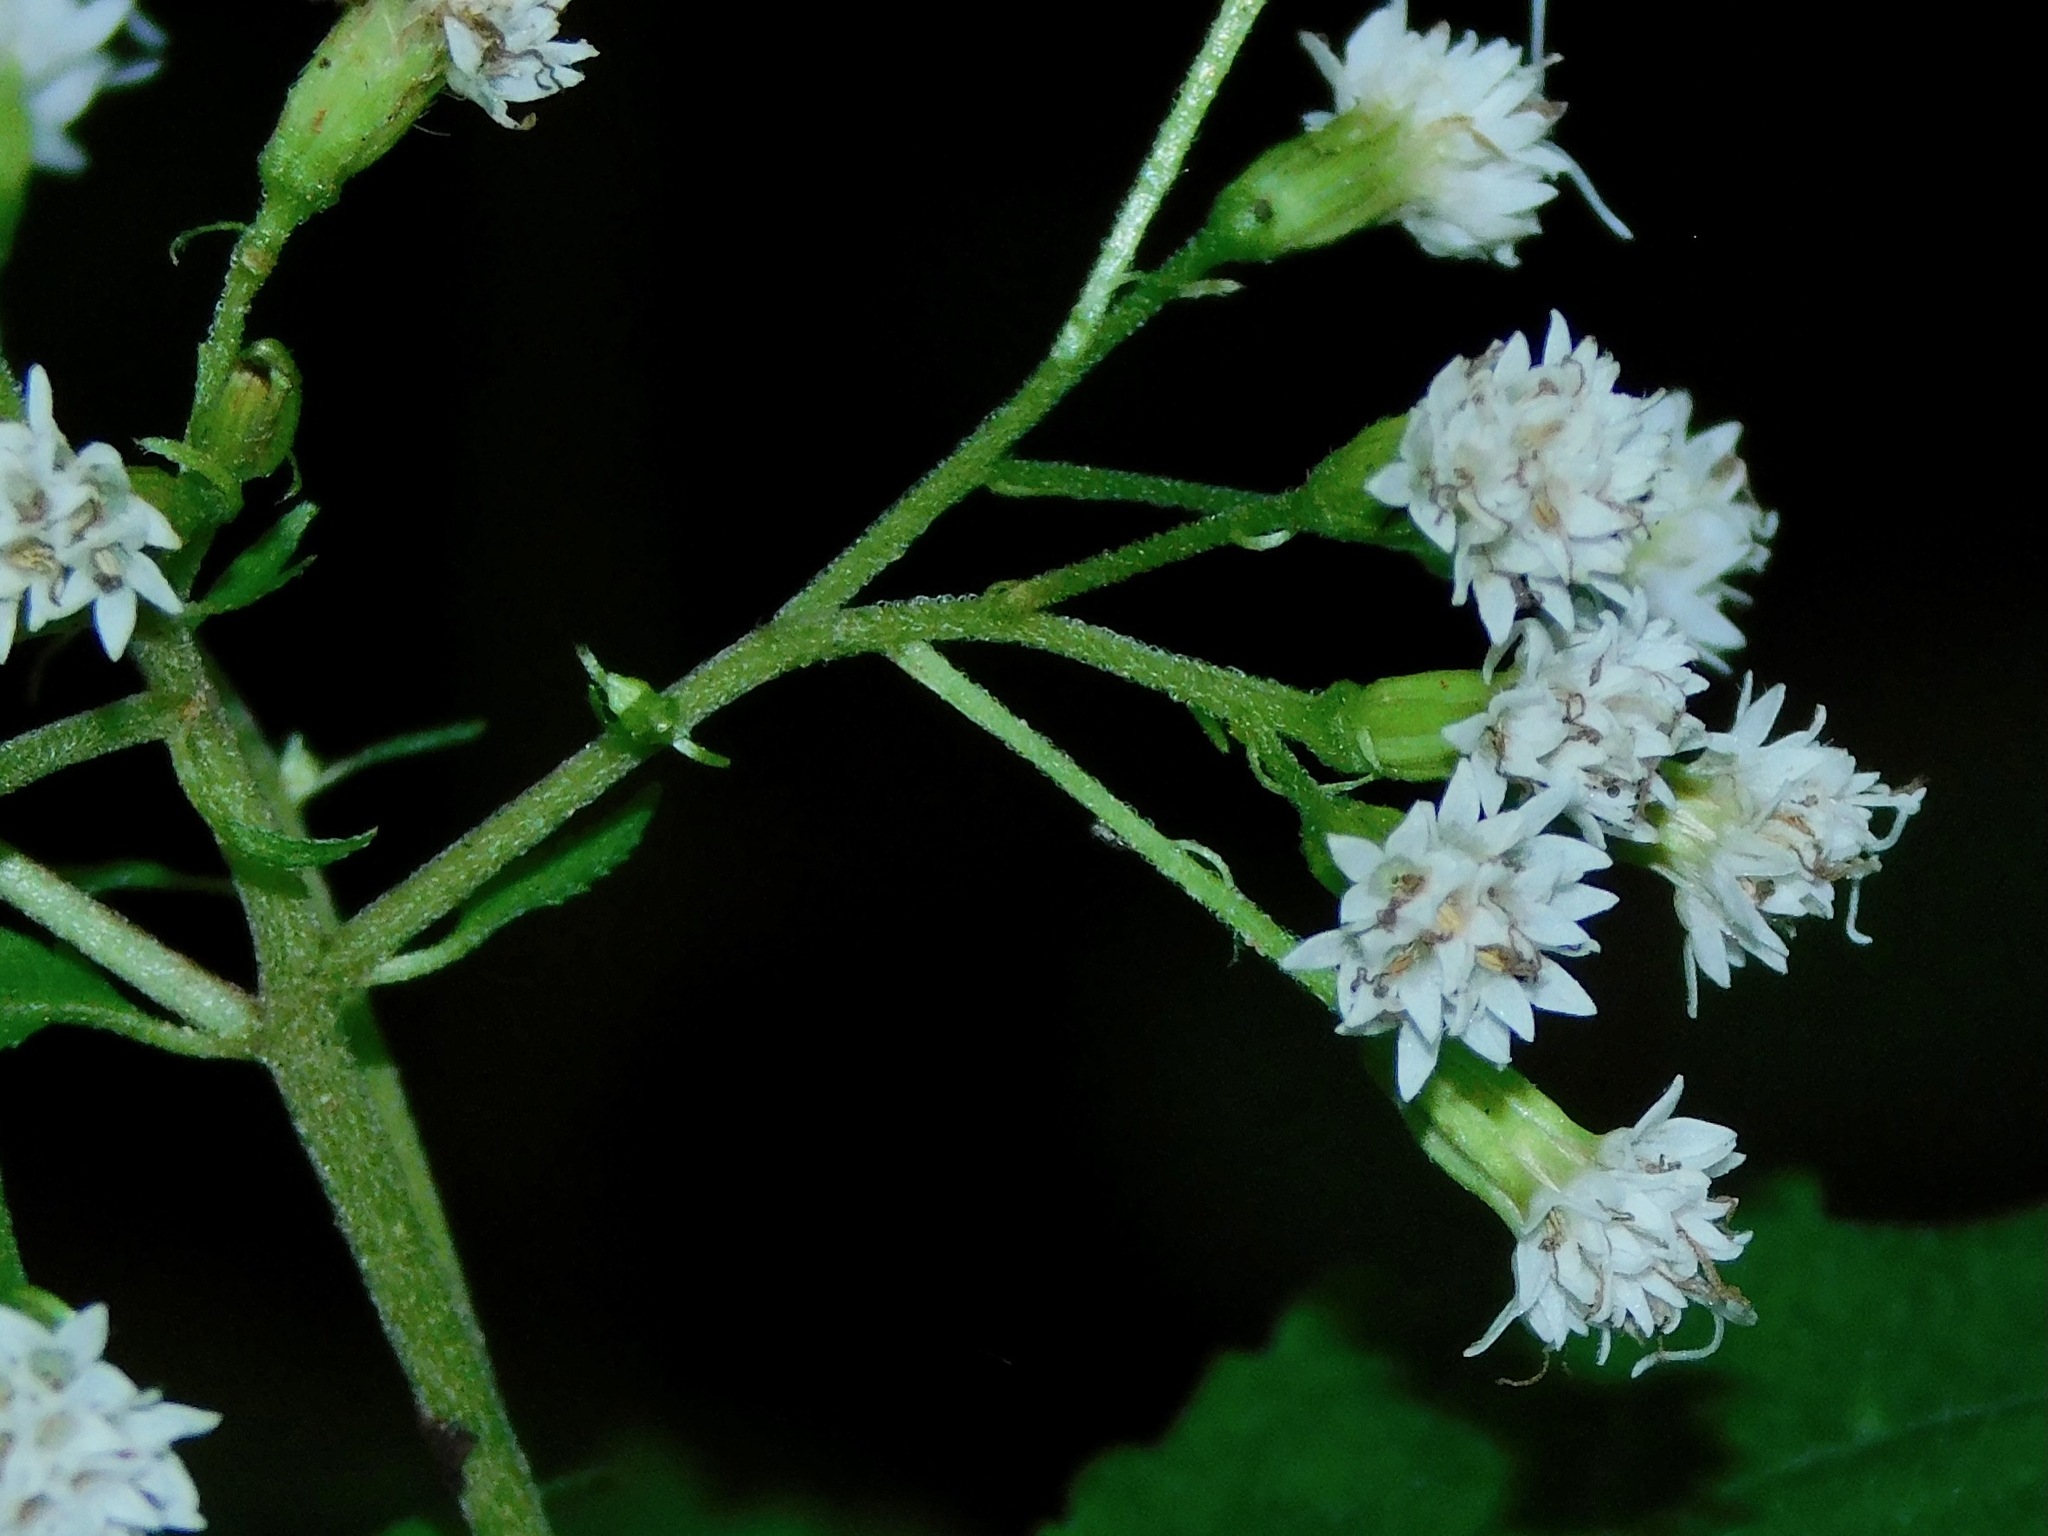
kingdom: Plantae
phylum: Tracheophyta
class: Magnoliopsida
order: Asterales
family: Asteraceae
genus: Ageratina
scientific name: Ageratina roanensis
